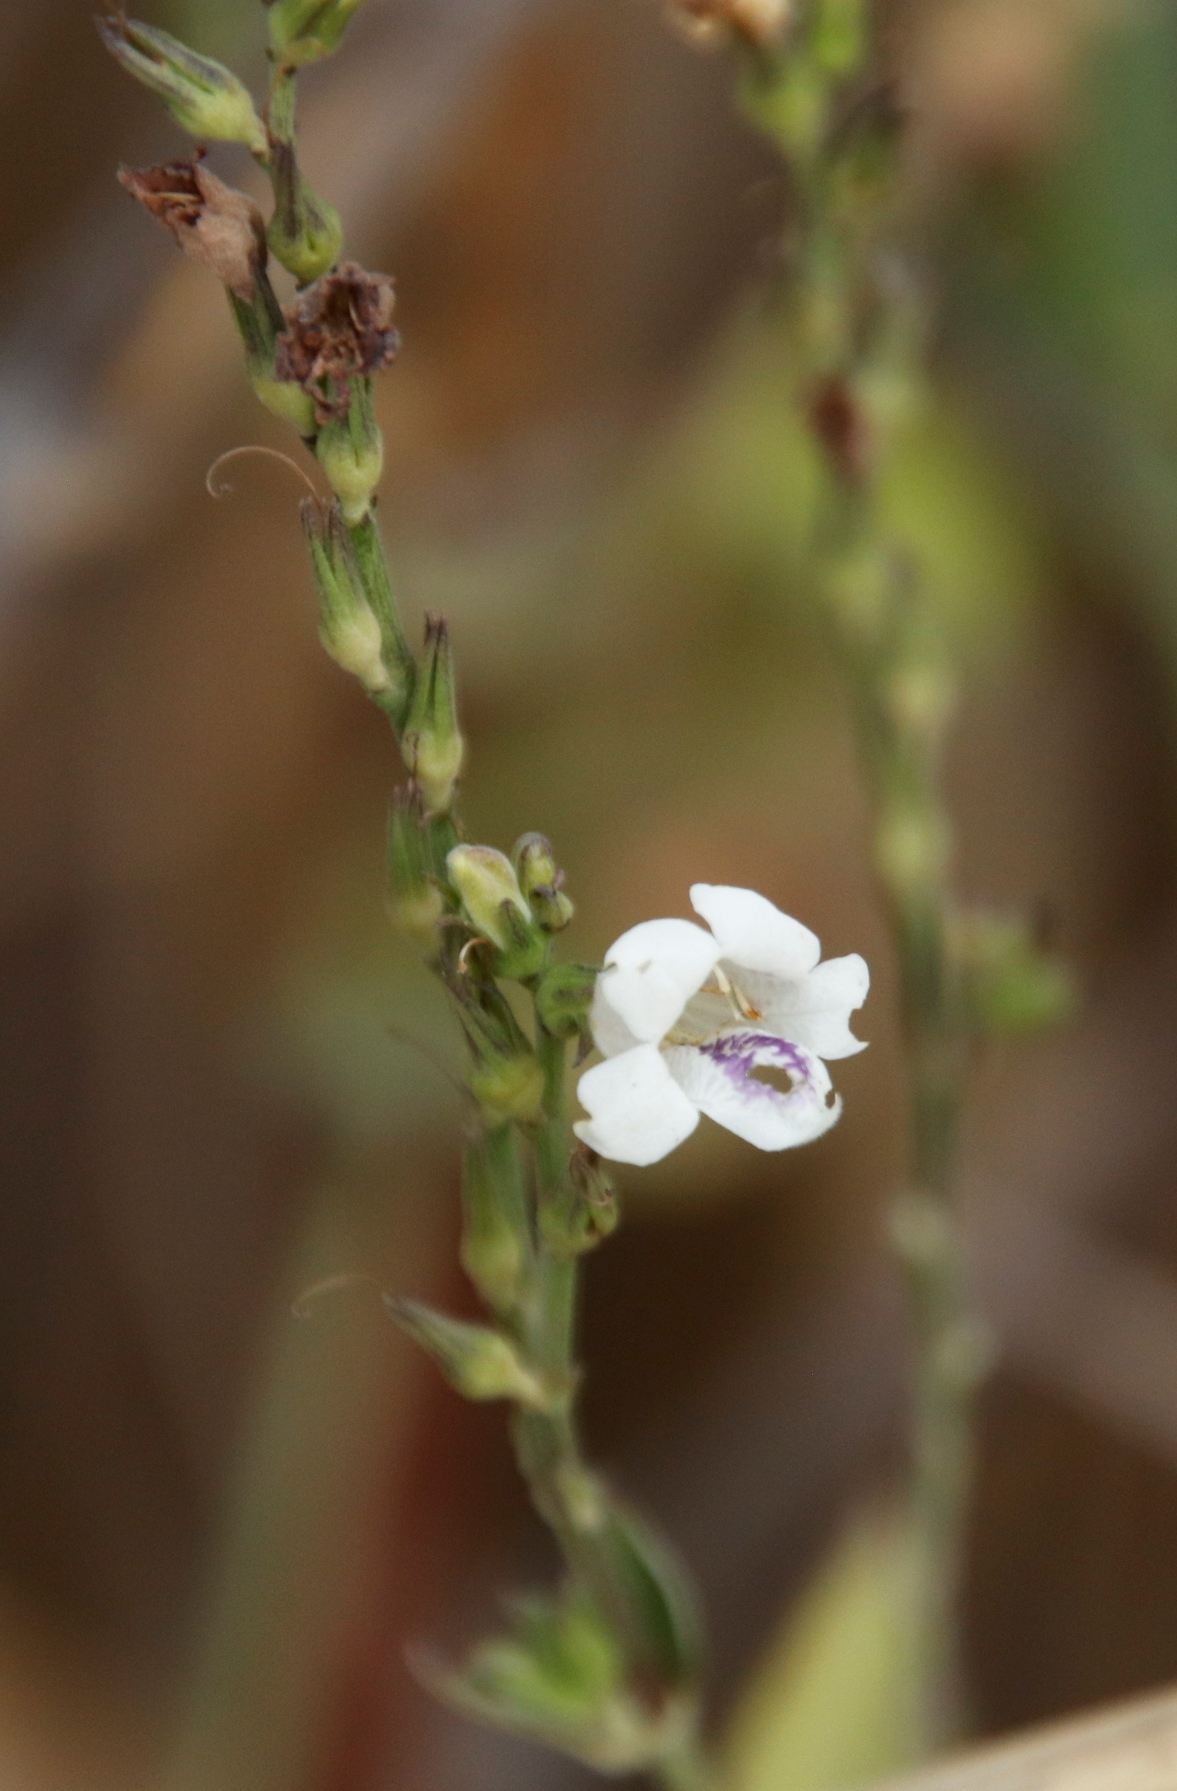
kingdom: Plantae
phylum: Tracheophyta
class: Magnoliopsida
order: Lamiales
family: Acanthaceae
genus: Asystasia
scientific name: Asystasia intrusa
